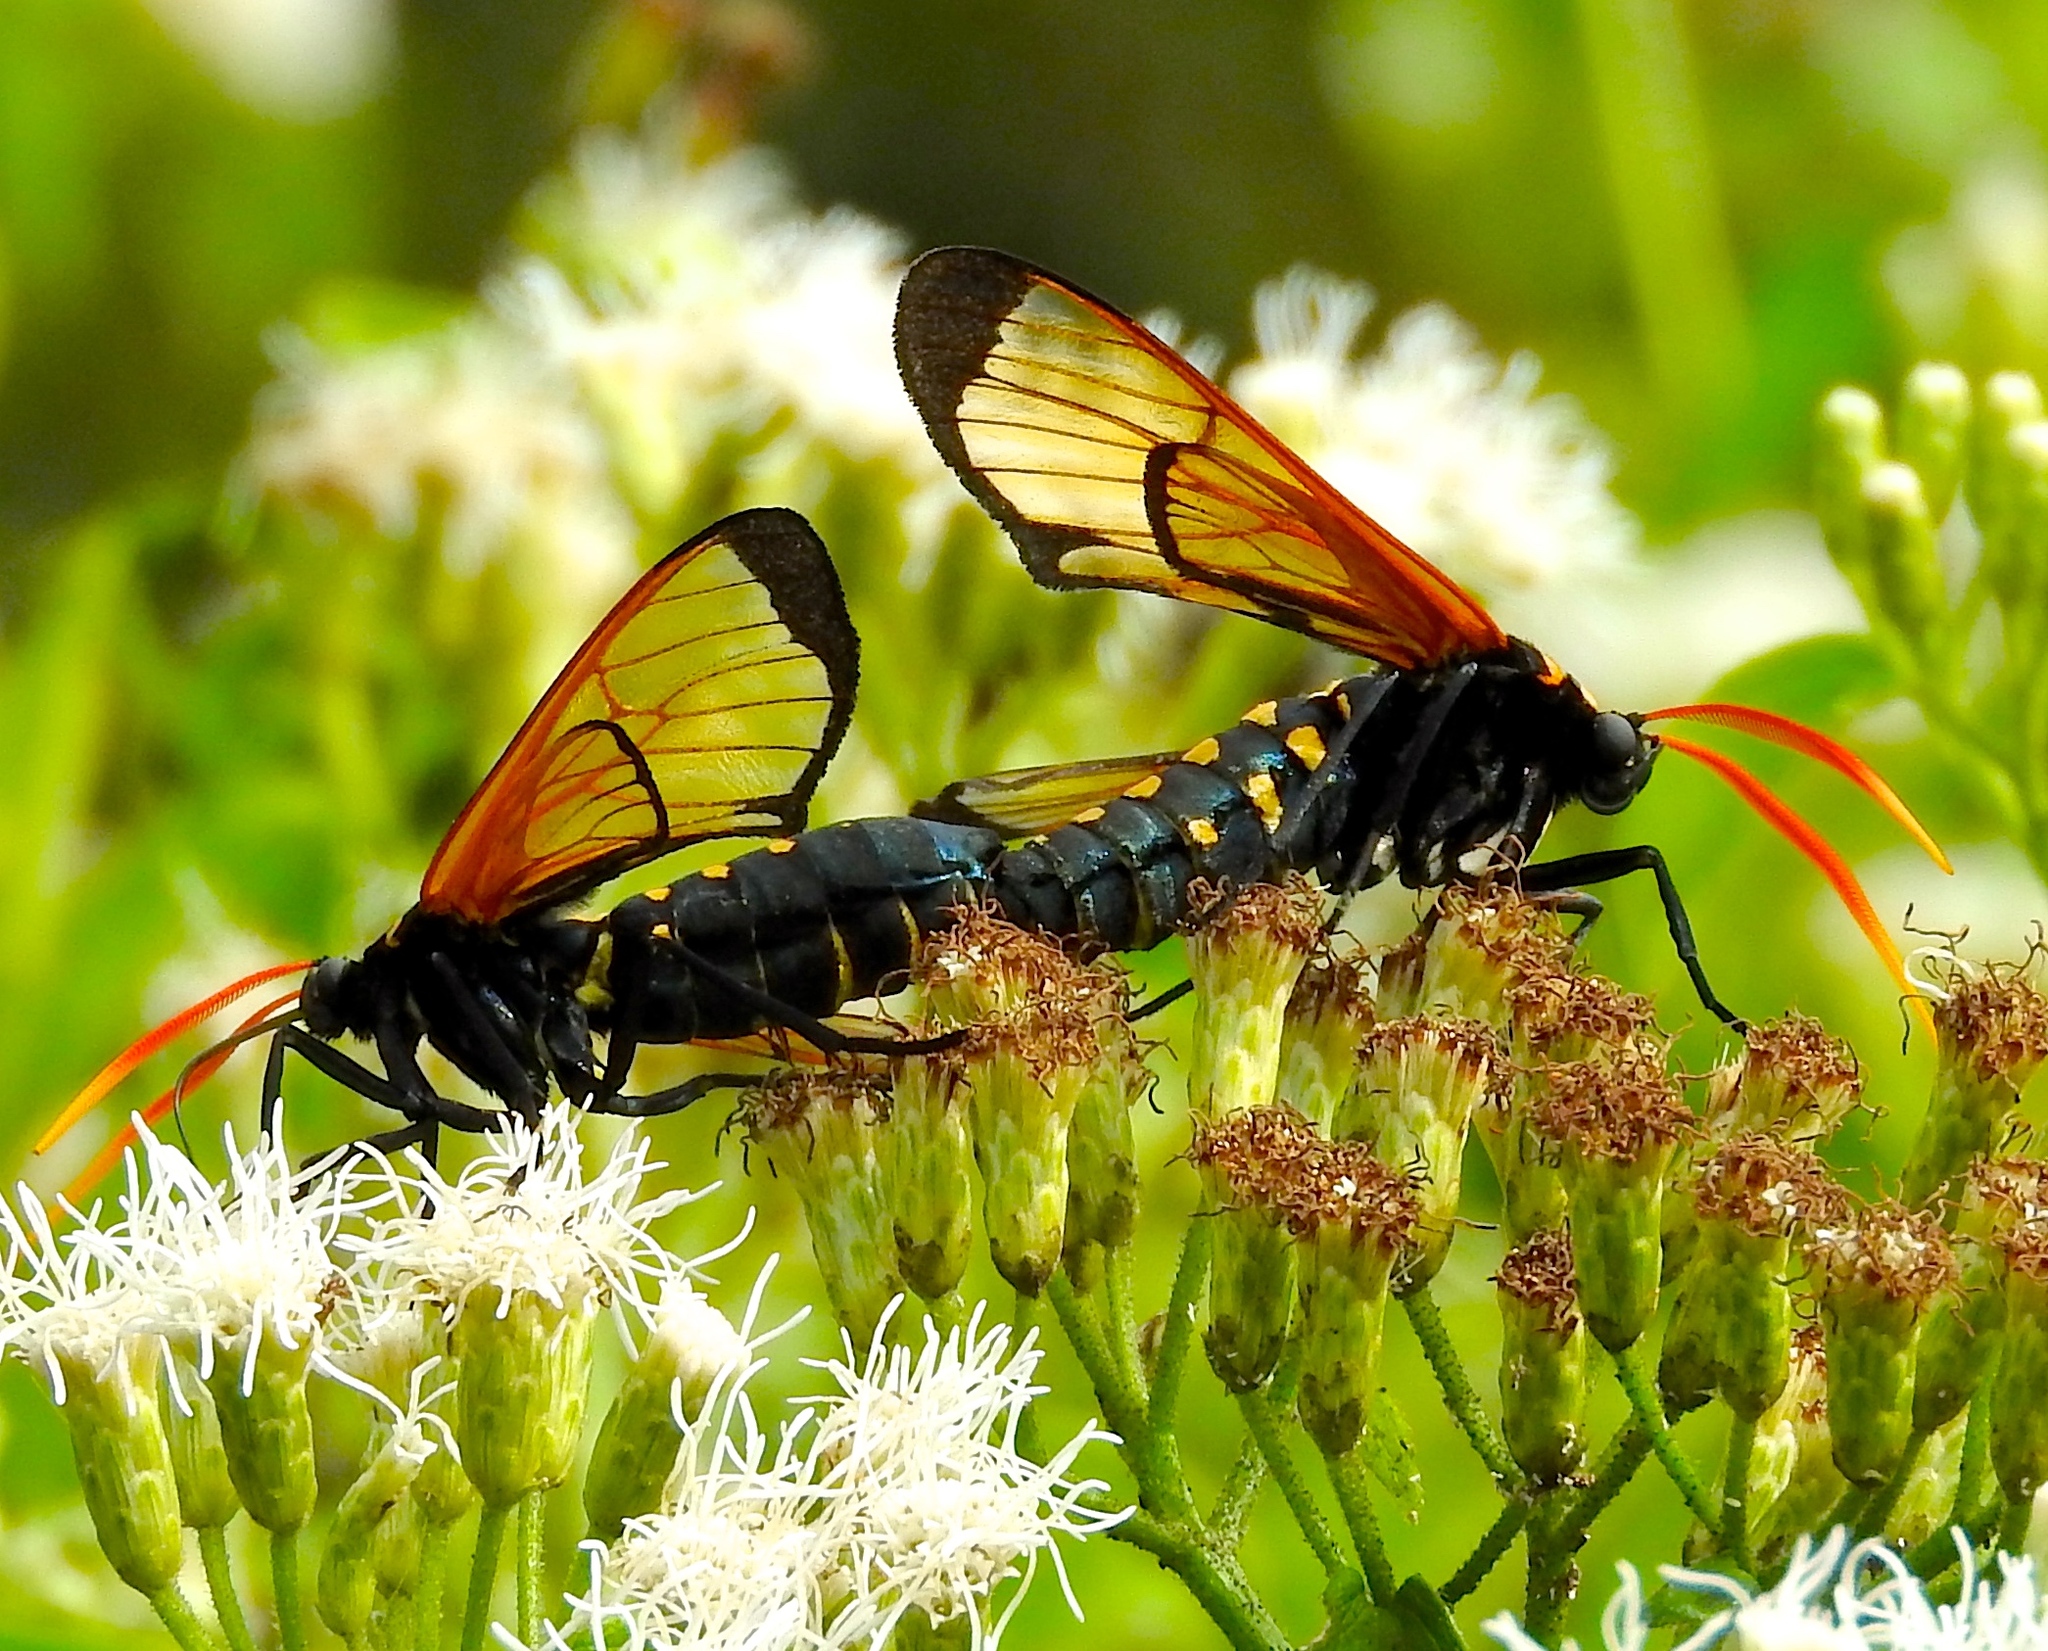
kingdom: Animalia
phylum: Arthropoda
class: Insecta
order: Lepidoptera
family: Erebidae
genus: Arctiinae
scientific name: Arctiinae
